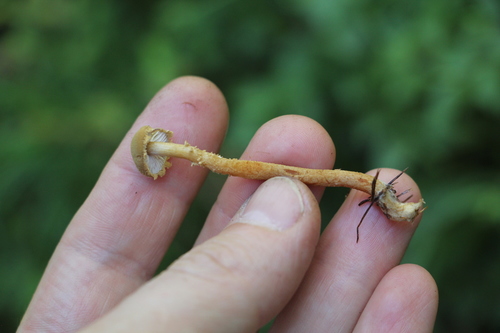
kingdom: Fungi
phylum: Basidiomycota
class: Agaricomycetes
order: Agaricales
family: Tricholomataceae
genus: Cystoderma
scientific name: Cystoderma amianthinum
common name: Earthy powdercap
